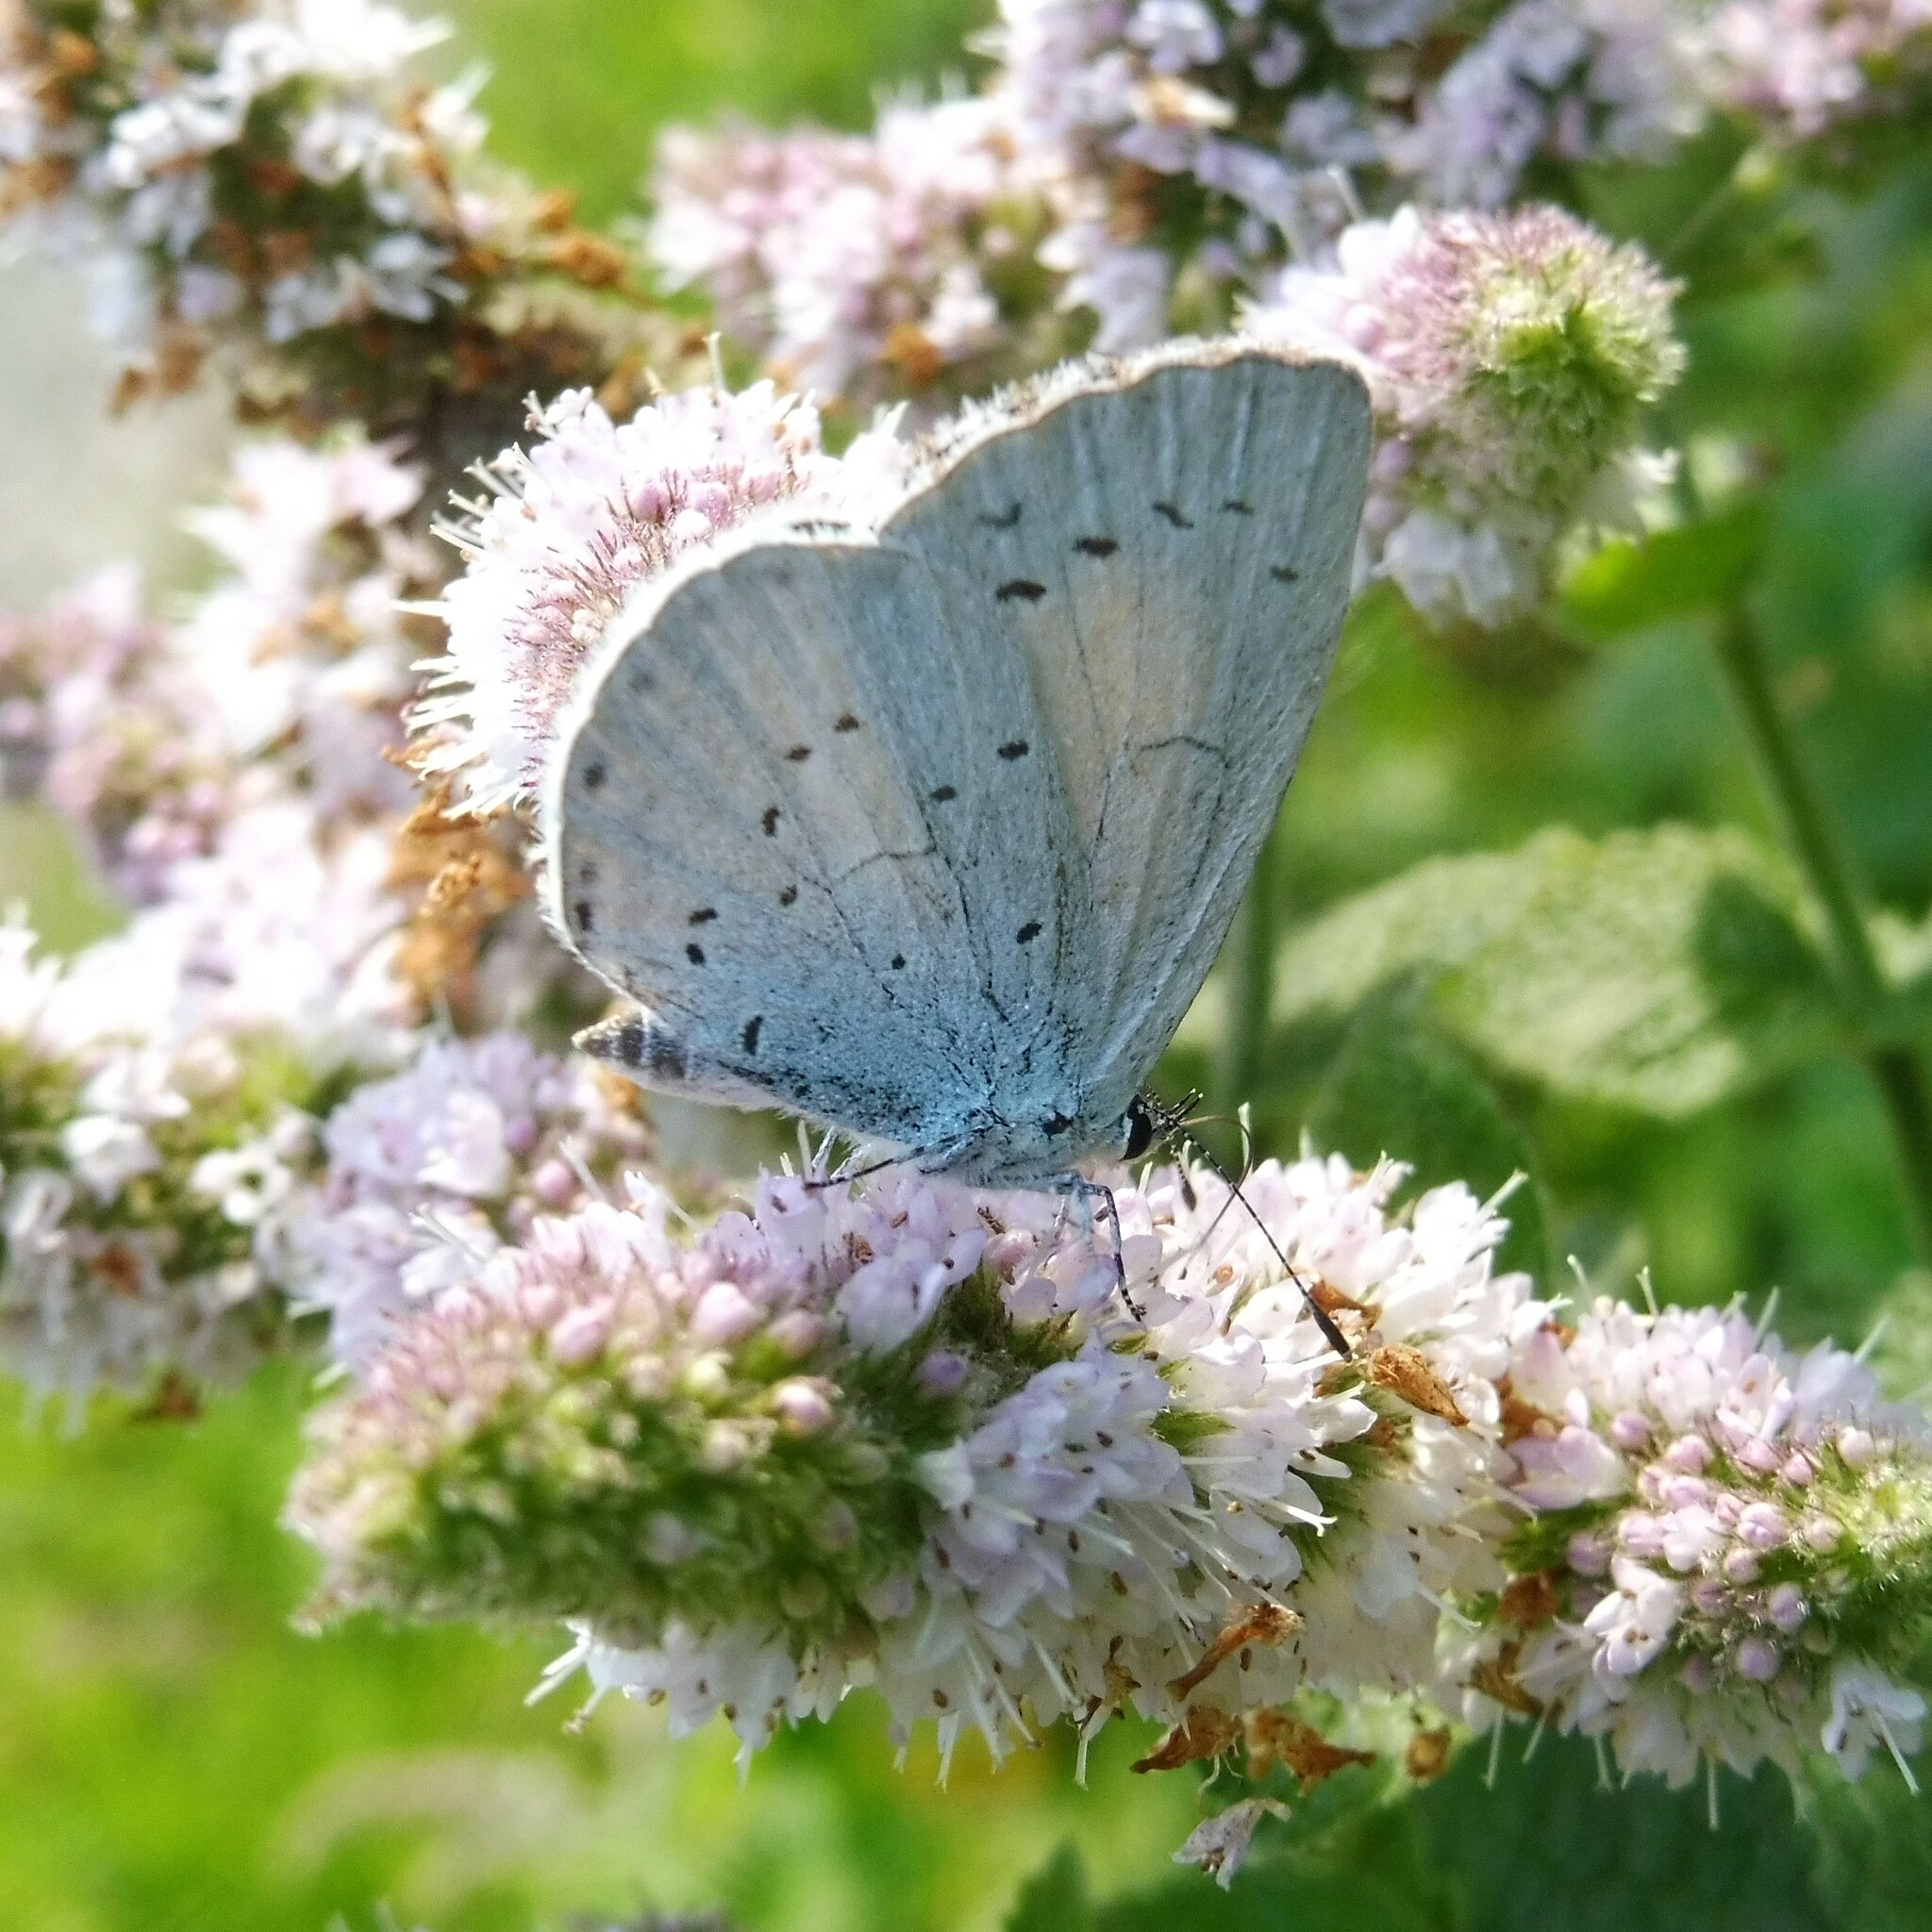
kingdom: Animalia
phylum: Arthropoda
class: Insecta
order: Lepidoptera
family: Lycaenidae
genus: Celastrina
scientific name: Celastrina argiolus
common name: Holly blue
